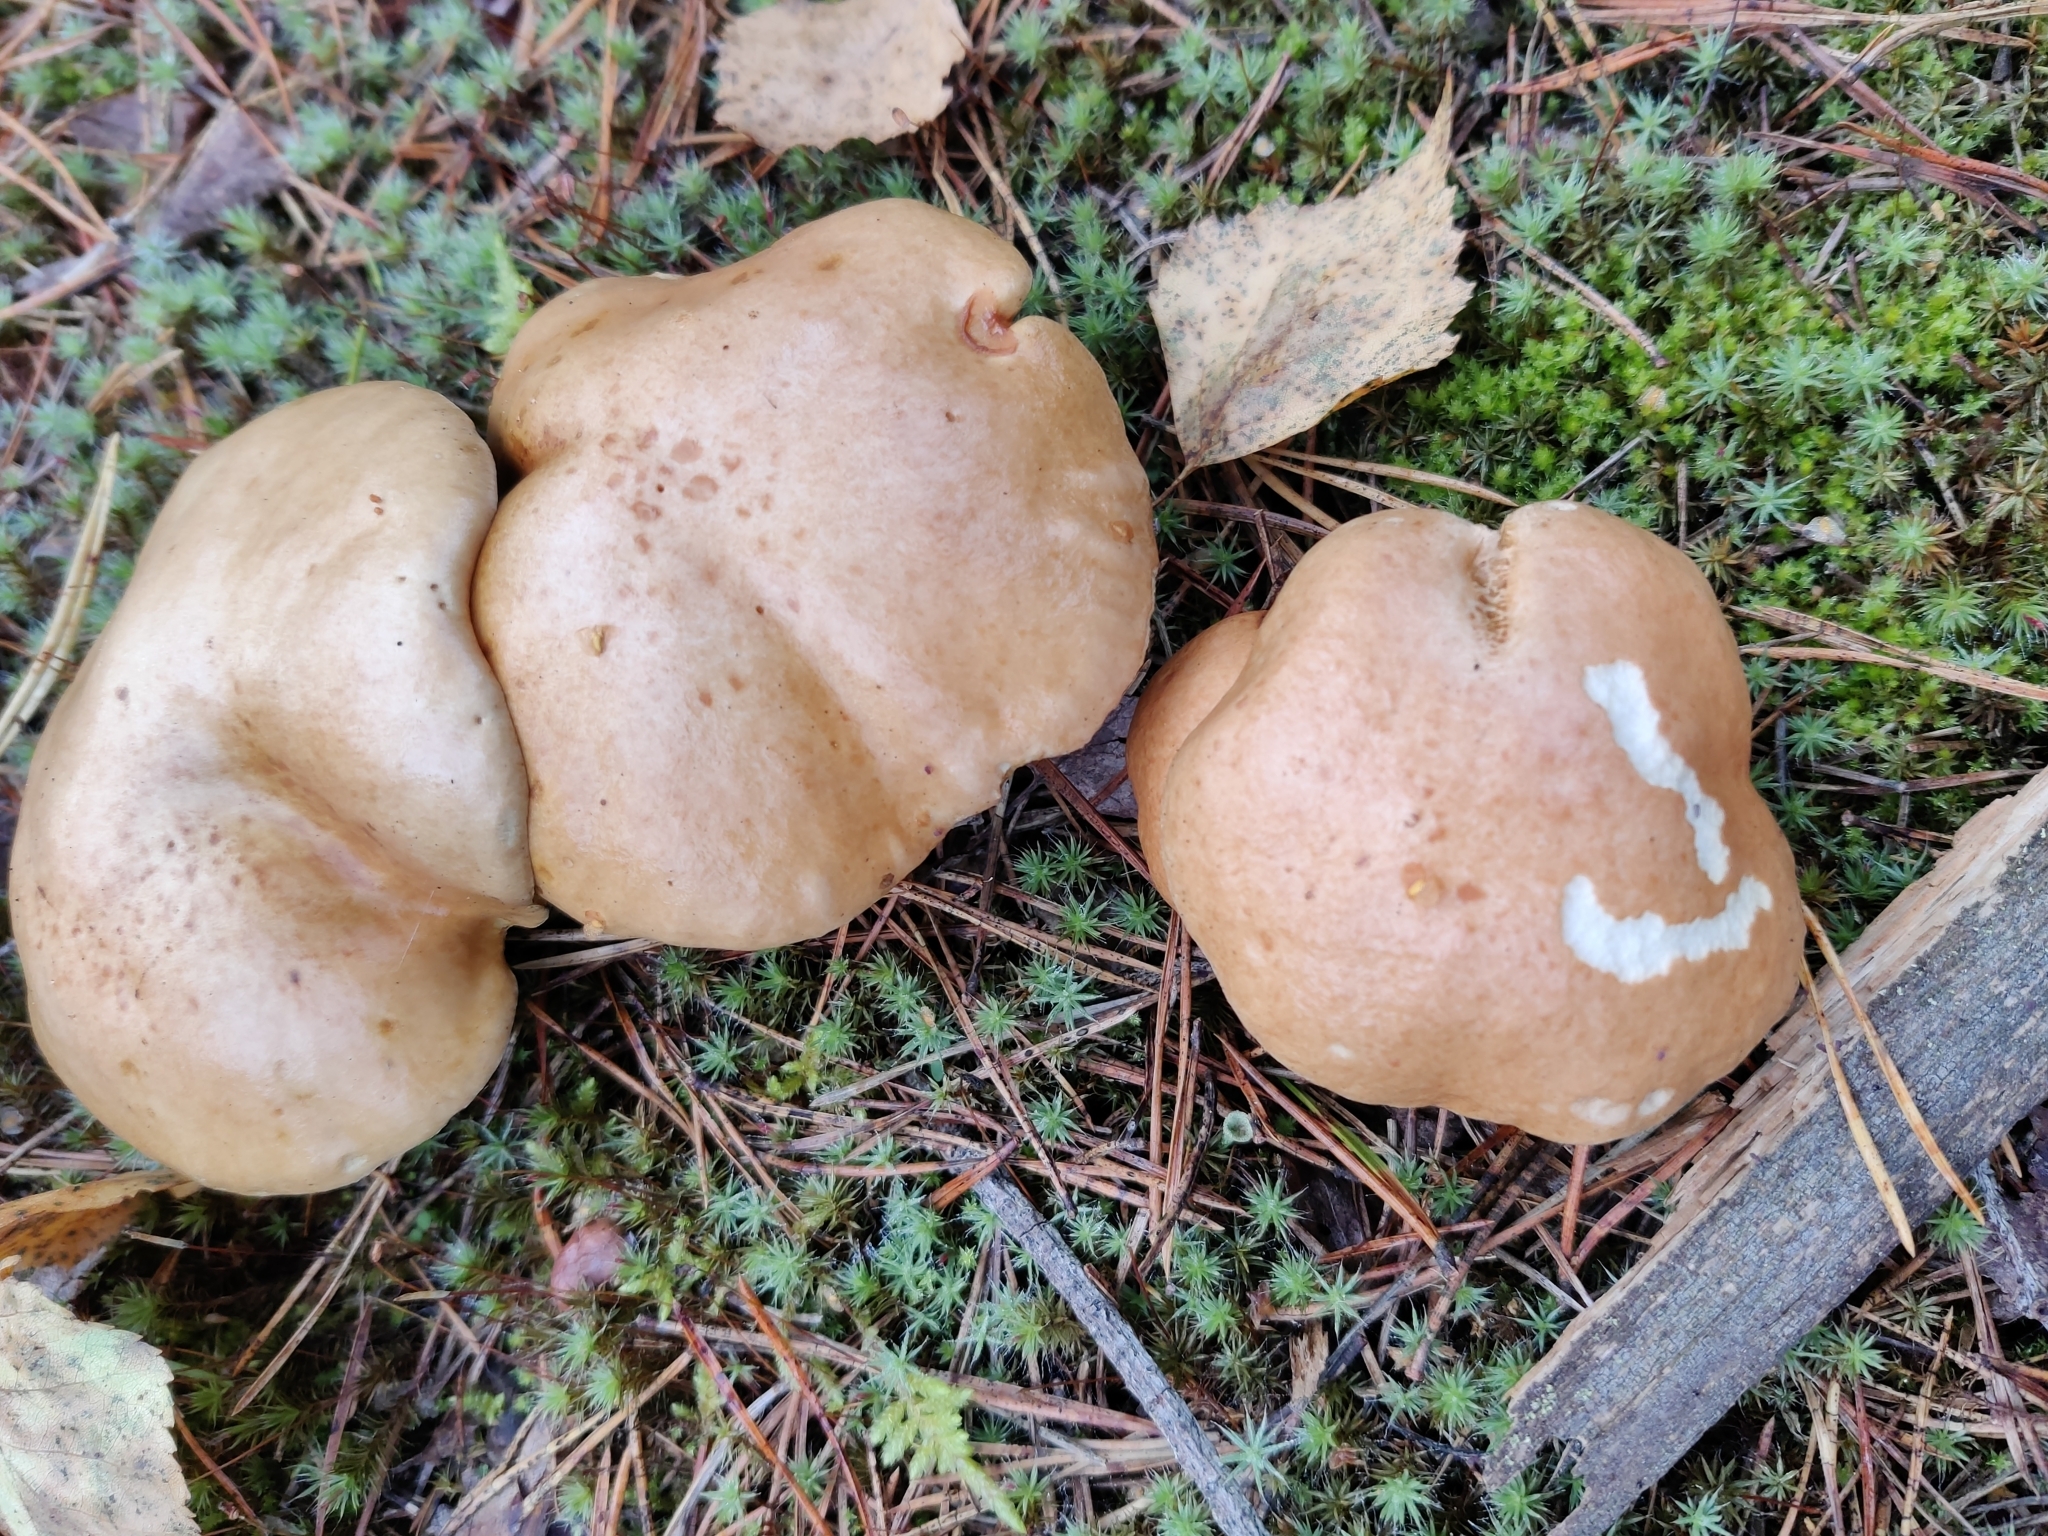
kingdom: Fungi
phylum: Basidiomycota
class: Agaricomycetes
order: Boletales
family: Suillaceae
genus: Suillus
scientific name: Suillus bovinus
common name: Bovine bolete
